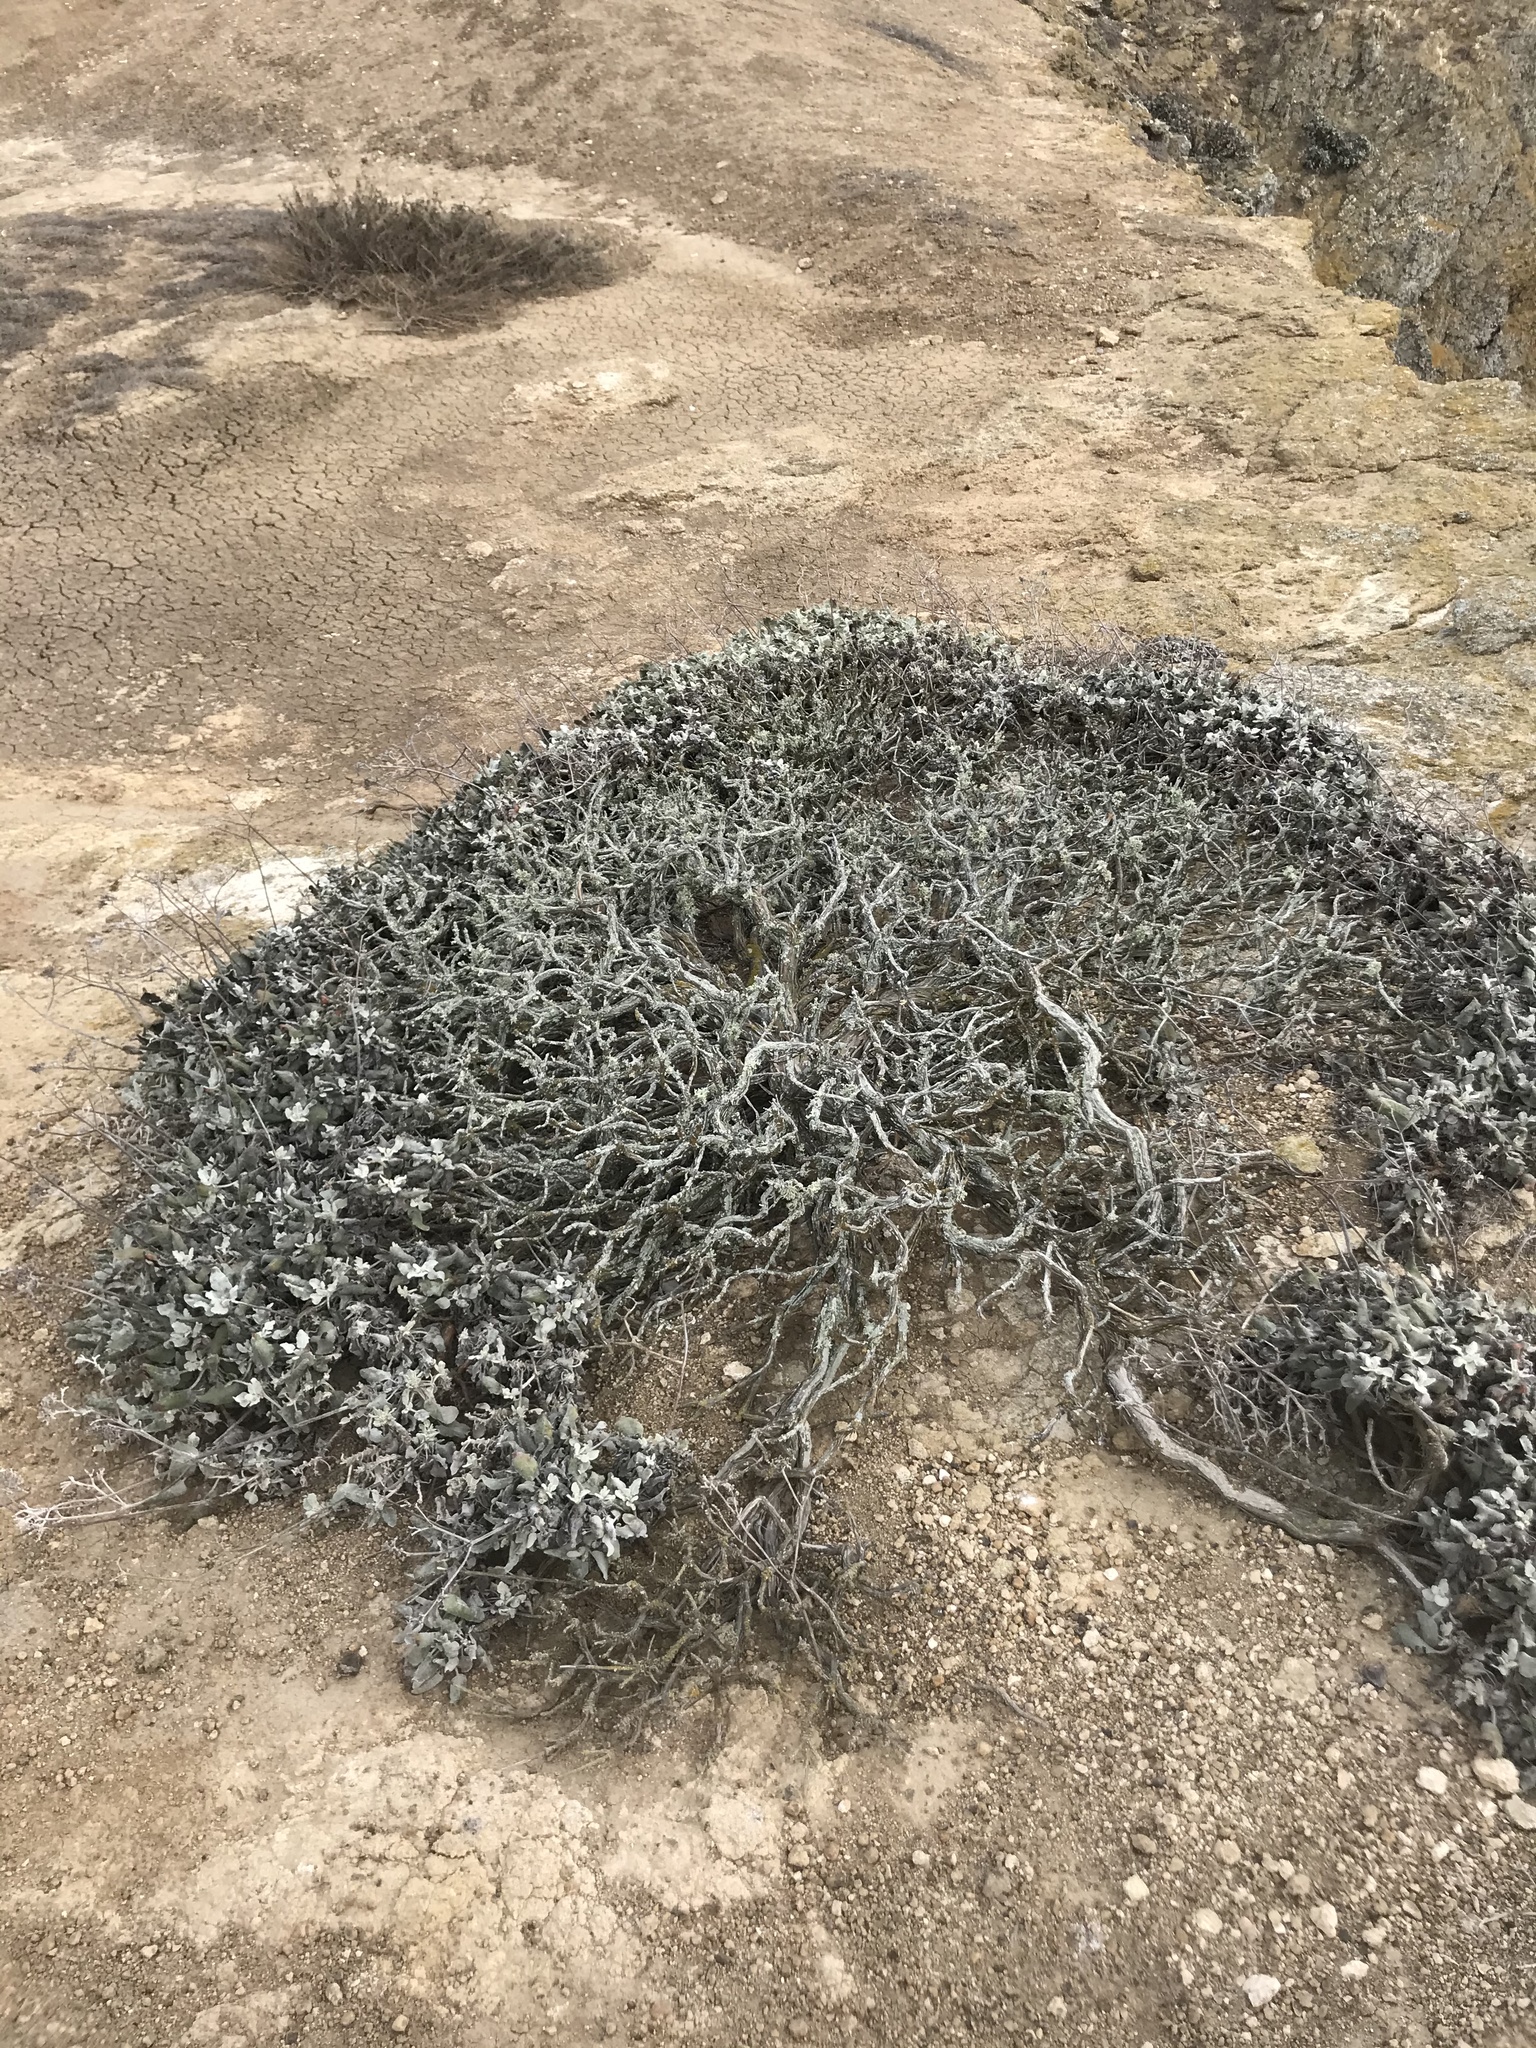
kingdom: Plantae
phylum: Tracheophyta
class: Magnoliopsida
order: Caryophyllales
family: Polygonaceae
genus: Eriogonum
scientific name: Eriogonum giganteum
